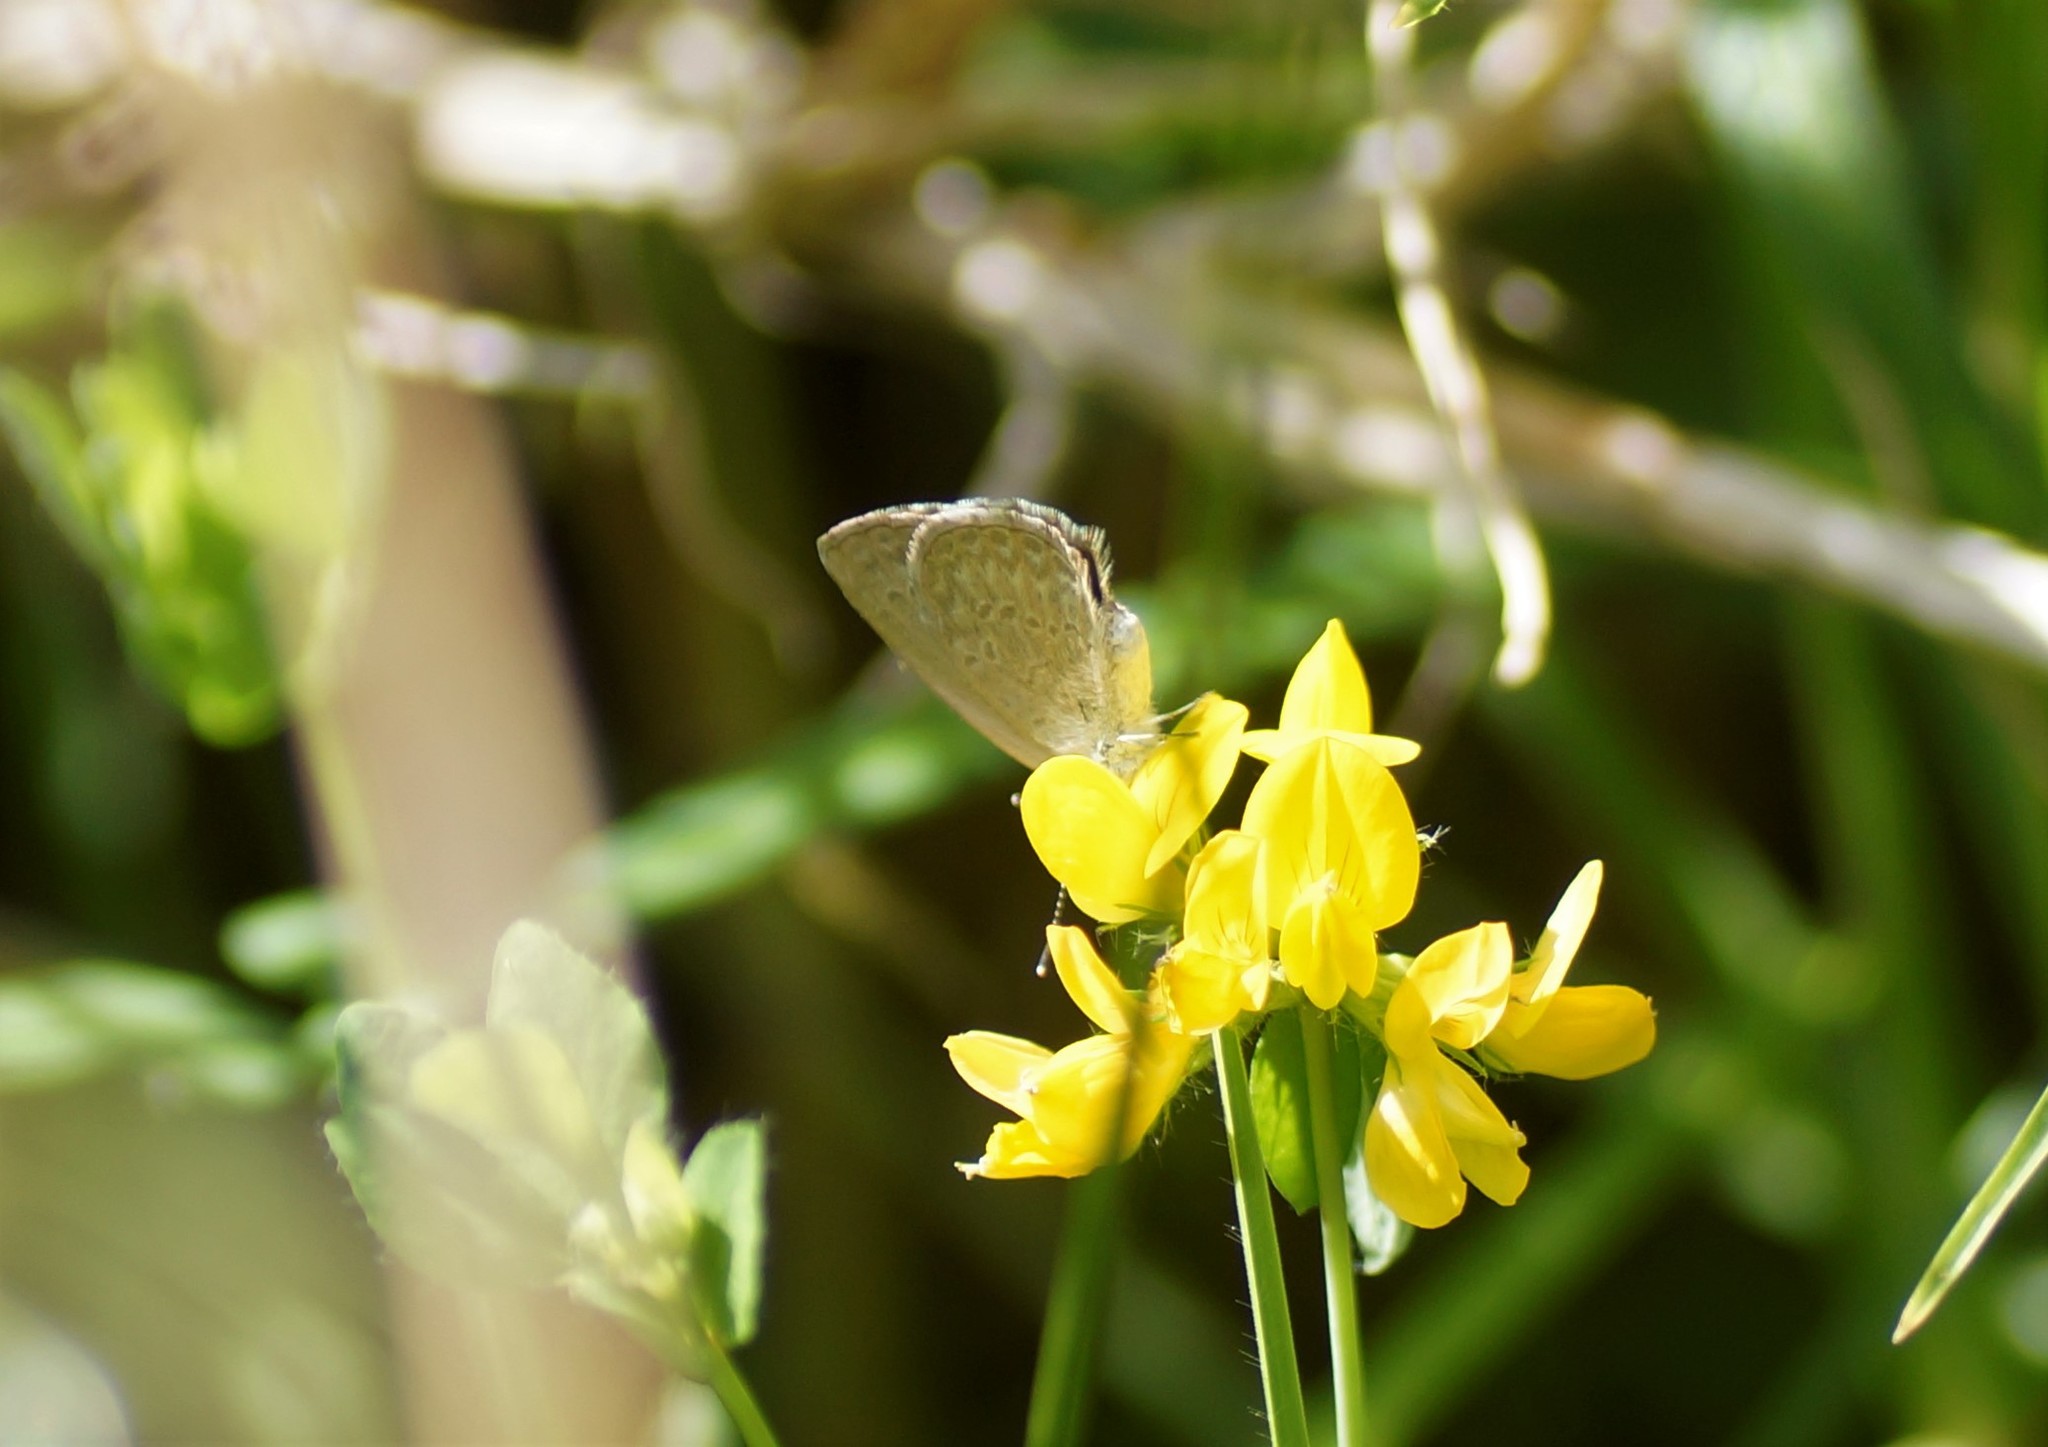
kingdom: Animalia
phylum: Arthropoda
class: Insecta
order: Lepidoptera
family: Lycaenidae
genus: Zizina
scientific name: Zizina otis
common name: Lesser grass blue
